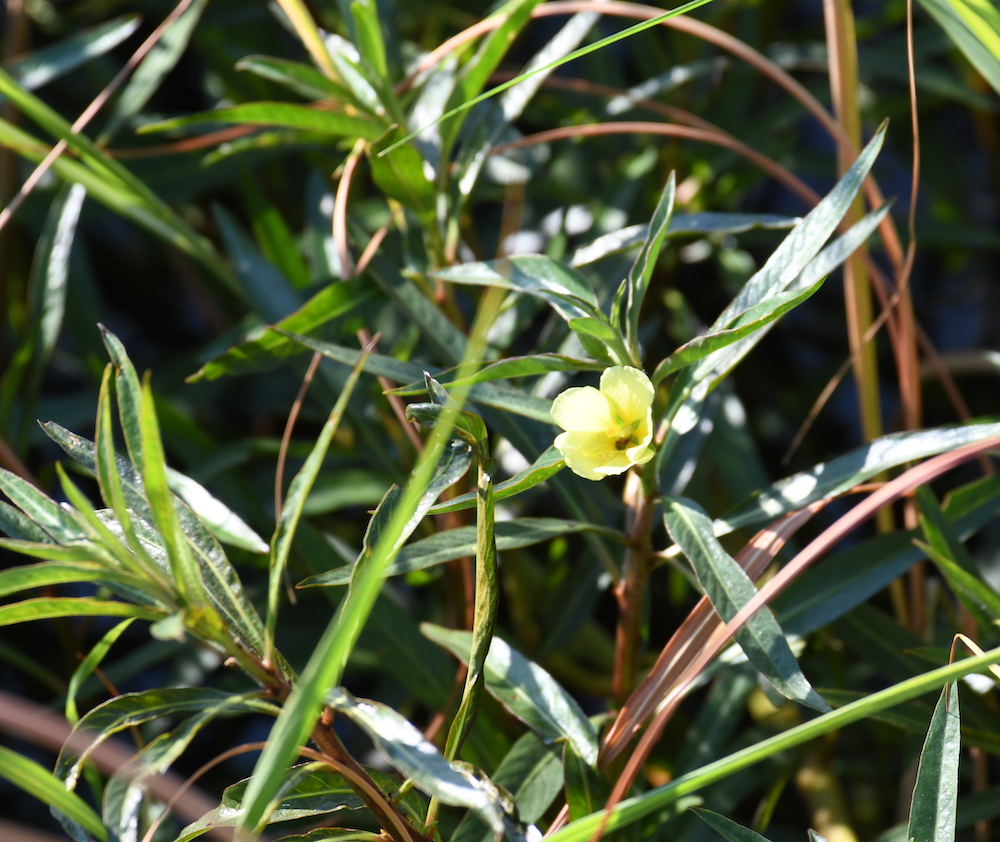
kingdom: Plantae
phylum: Tracheophyta
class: Magnoliopsida
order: Myrtales
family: Onagraceae
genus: Ludwigia
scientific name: Ludwigia adscendens
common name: Creeping water primrose
